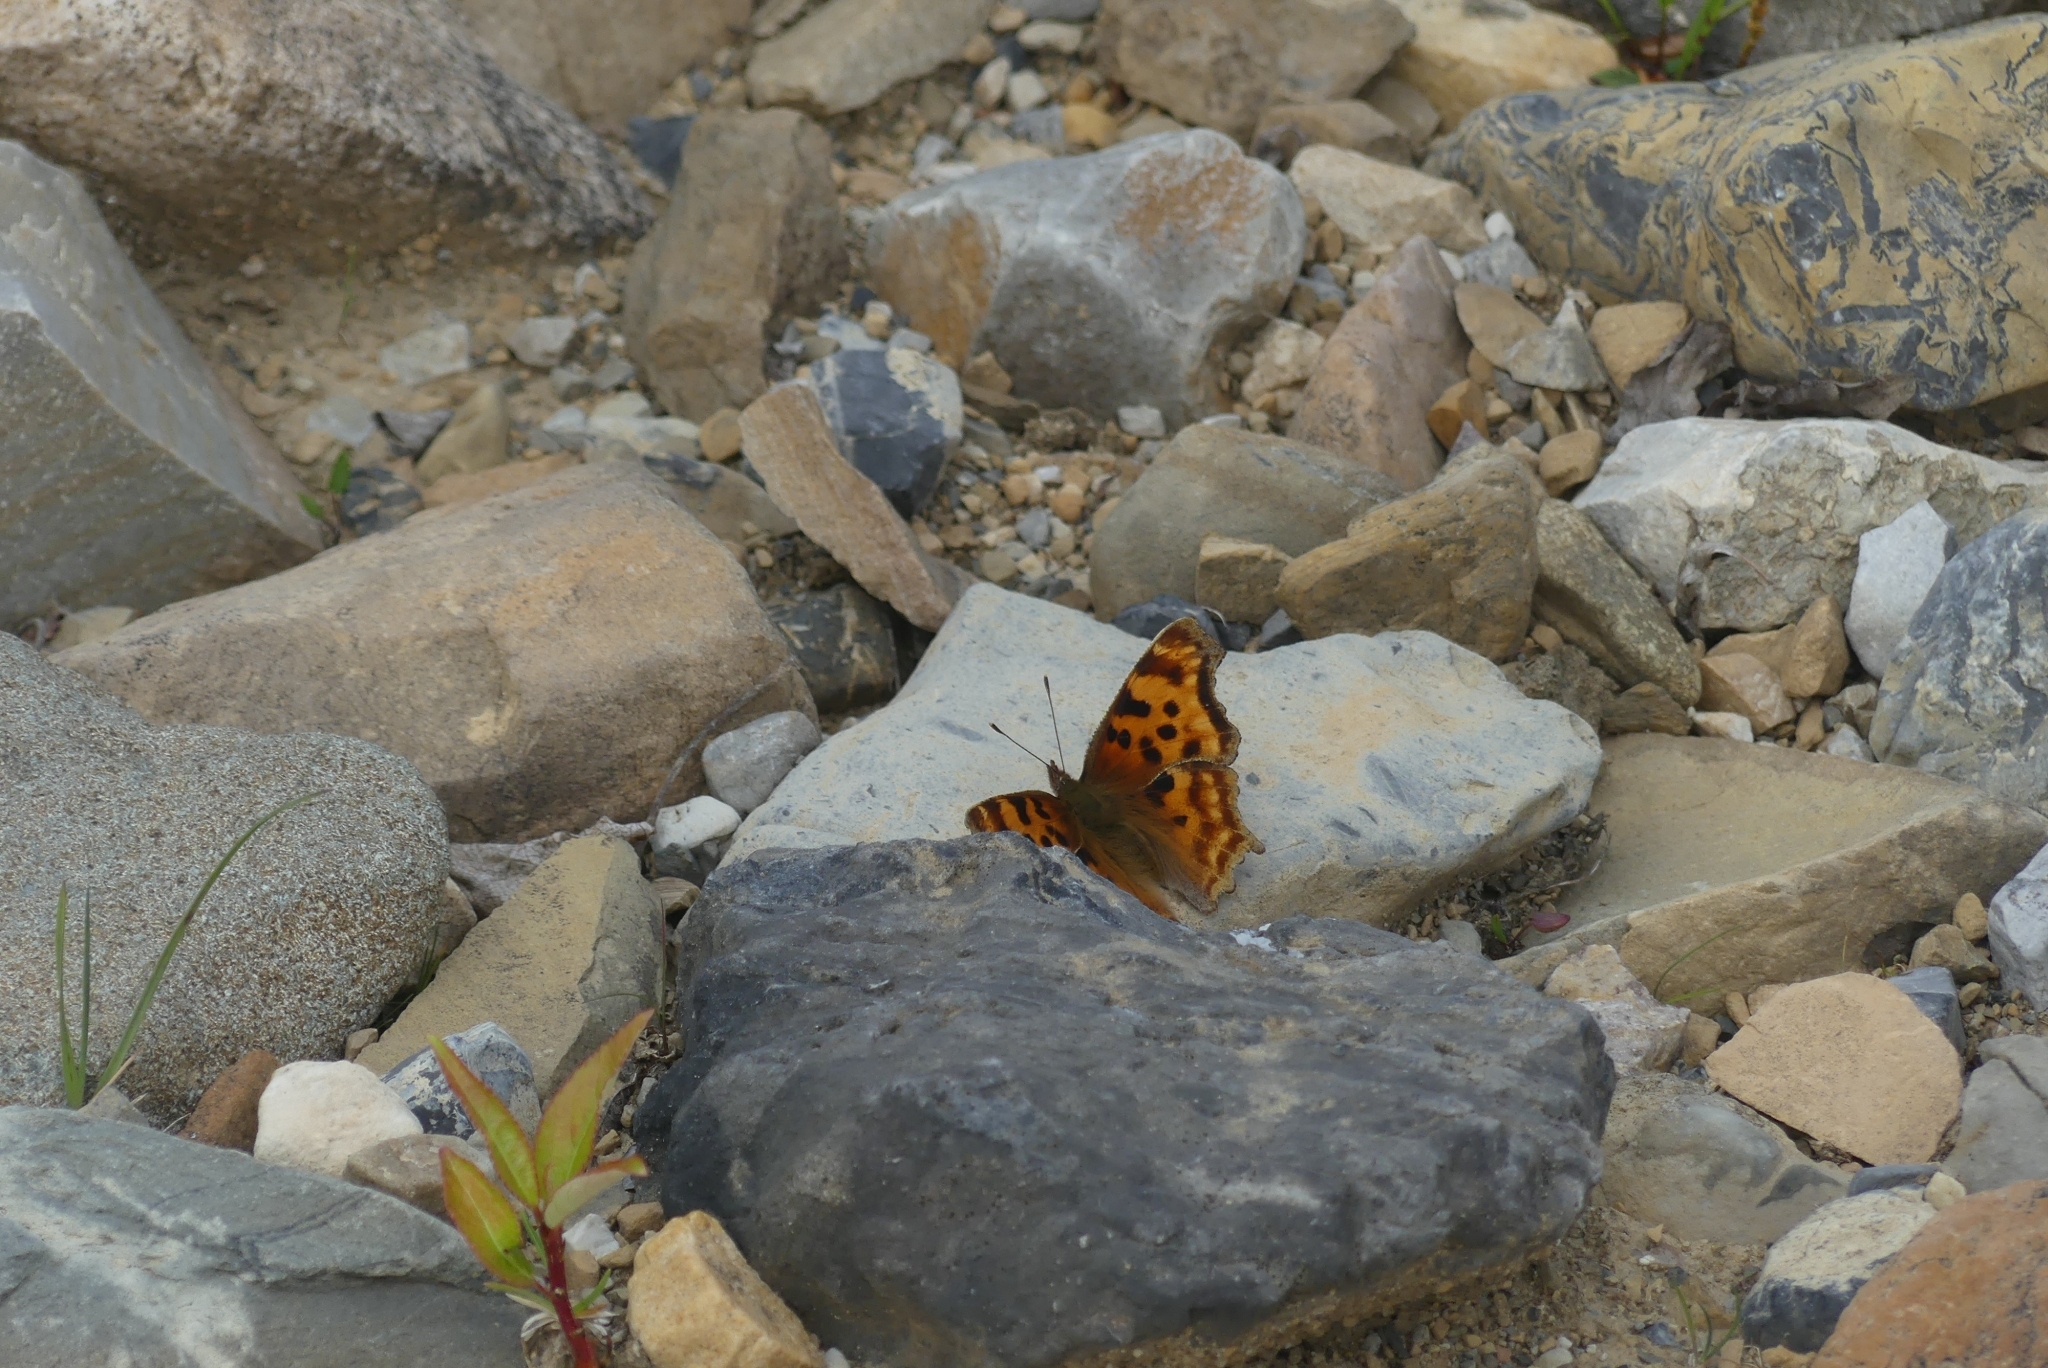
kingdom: Animalia
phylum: Arthropoda
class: Insecta
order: Lepidoptera
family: Nymphalidae
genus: Polygonia
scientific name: Polygonia satyrus
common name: Satyr angle wing
